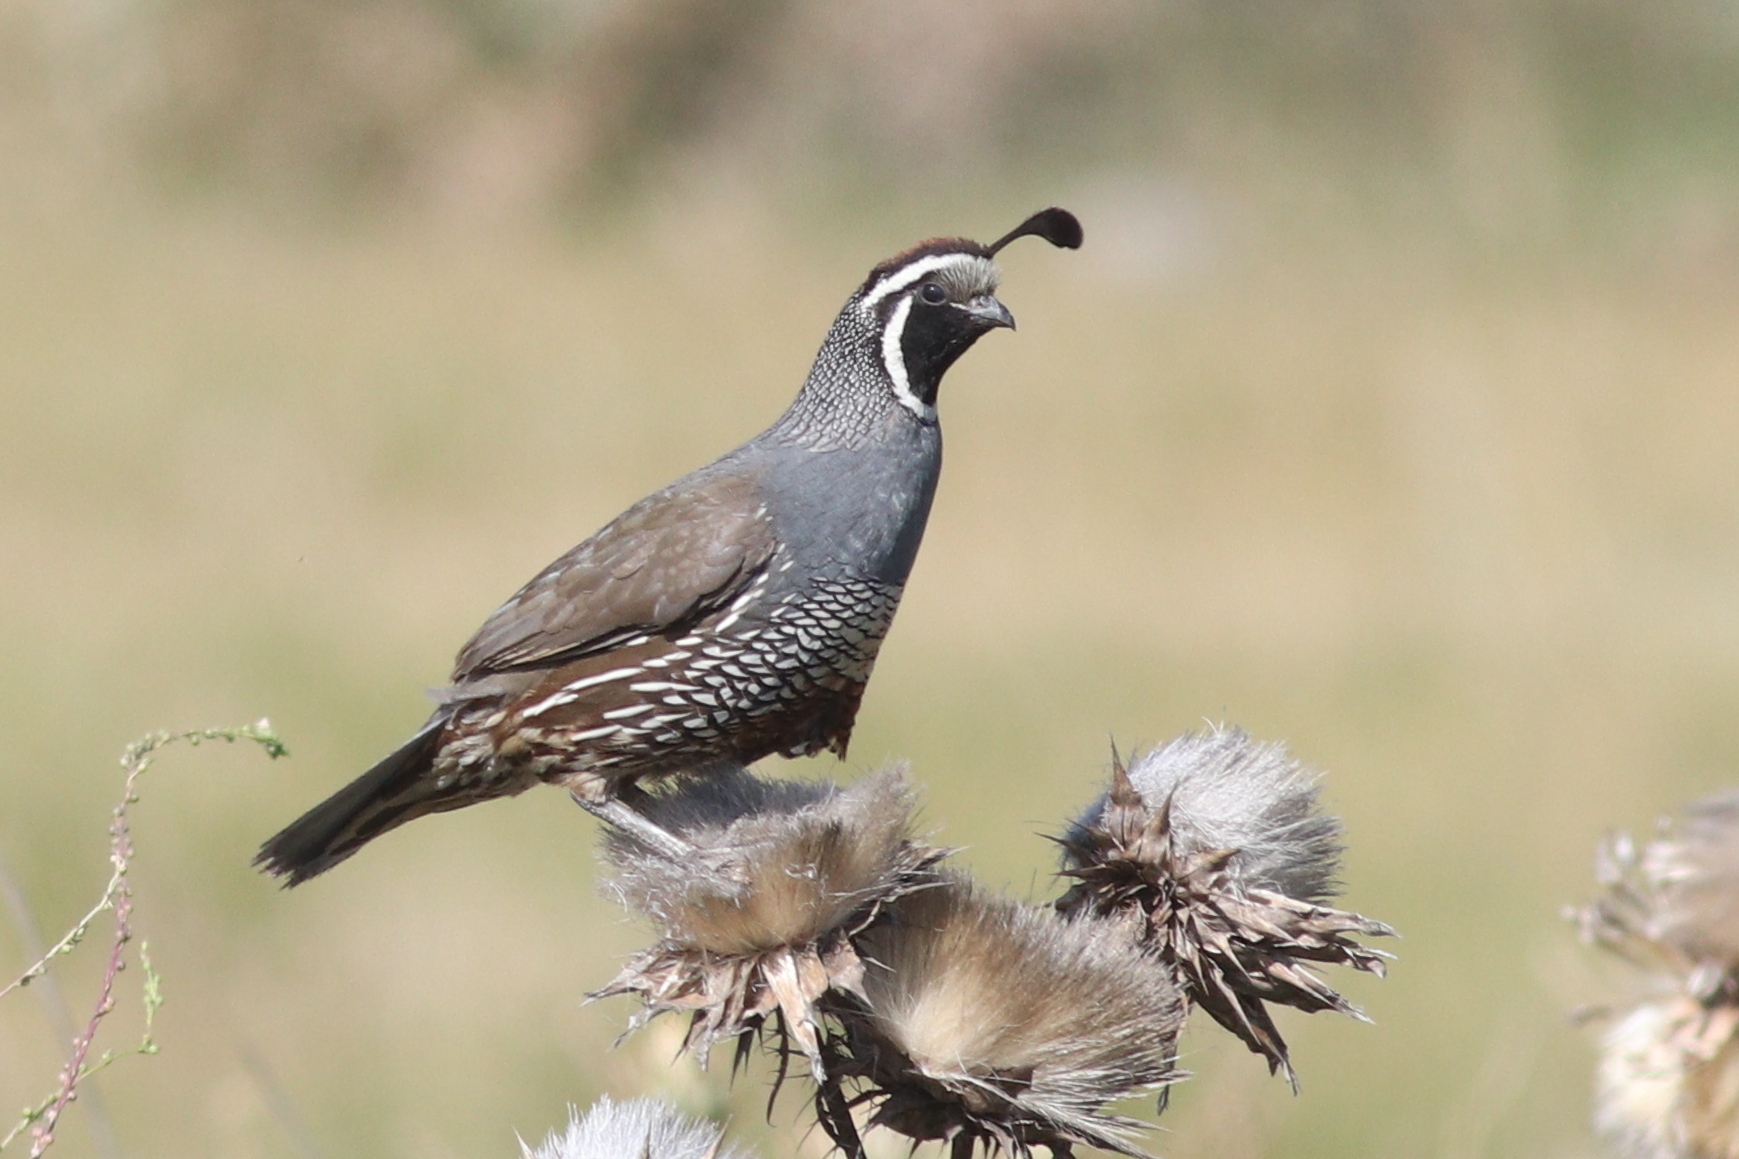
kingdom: Animalia
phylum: Chordata
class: Aves
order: Galliformes
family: Odontophoridae
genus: Callipepla
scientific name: Callipepla californica
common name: California quail
